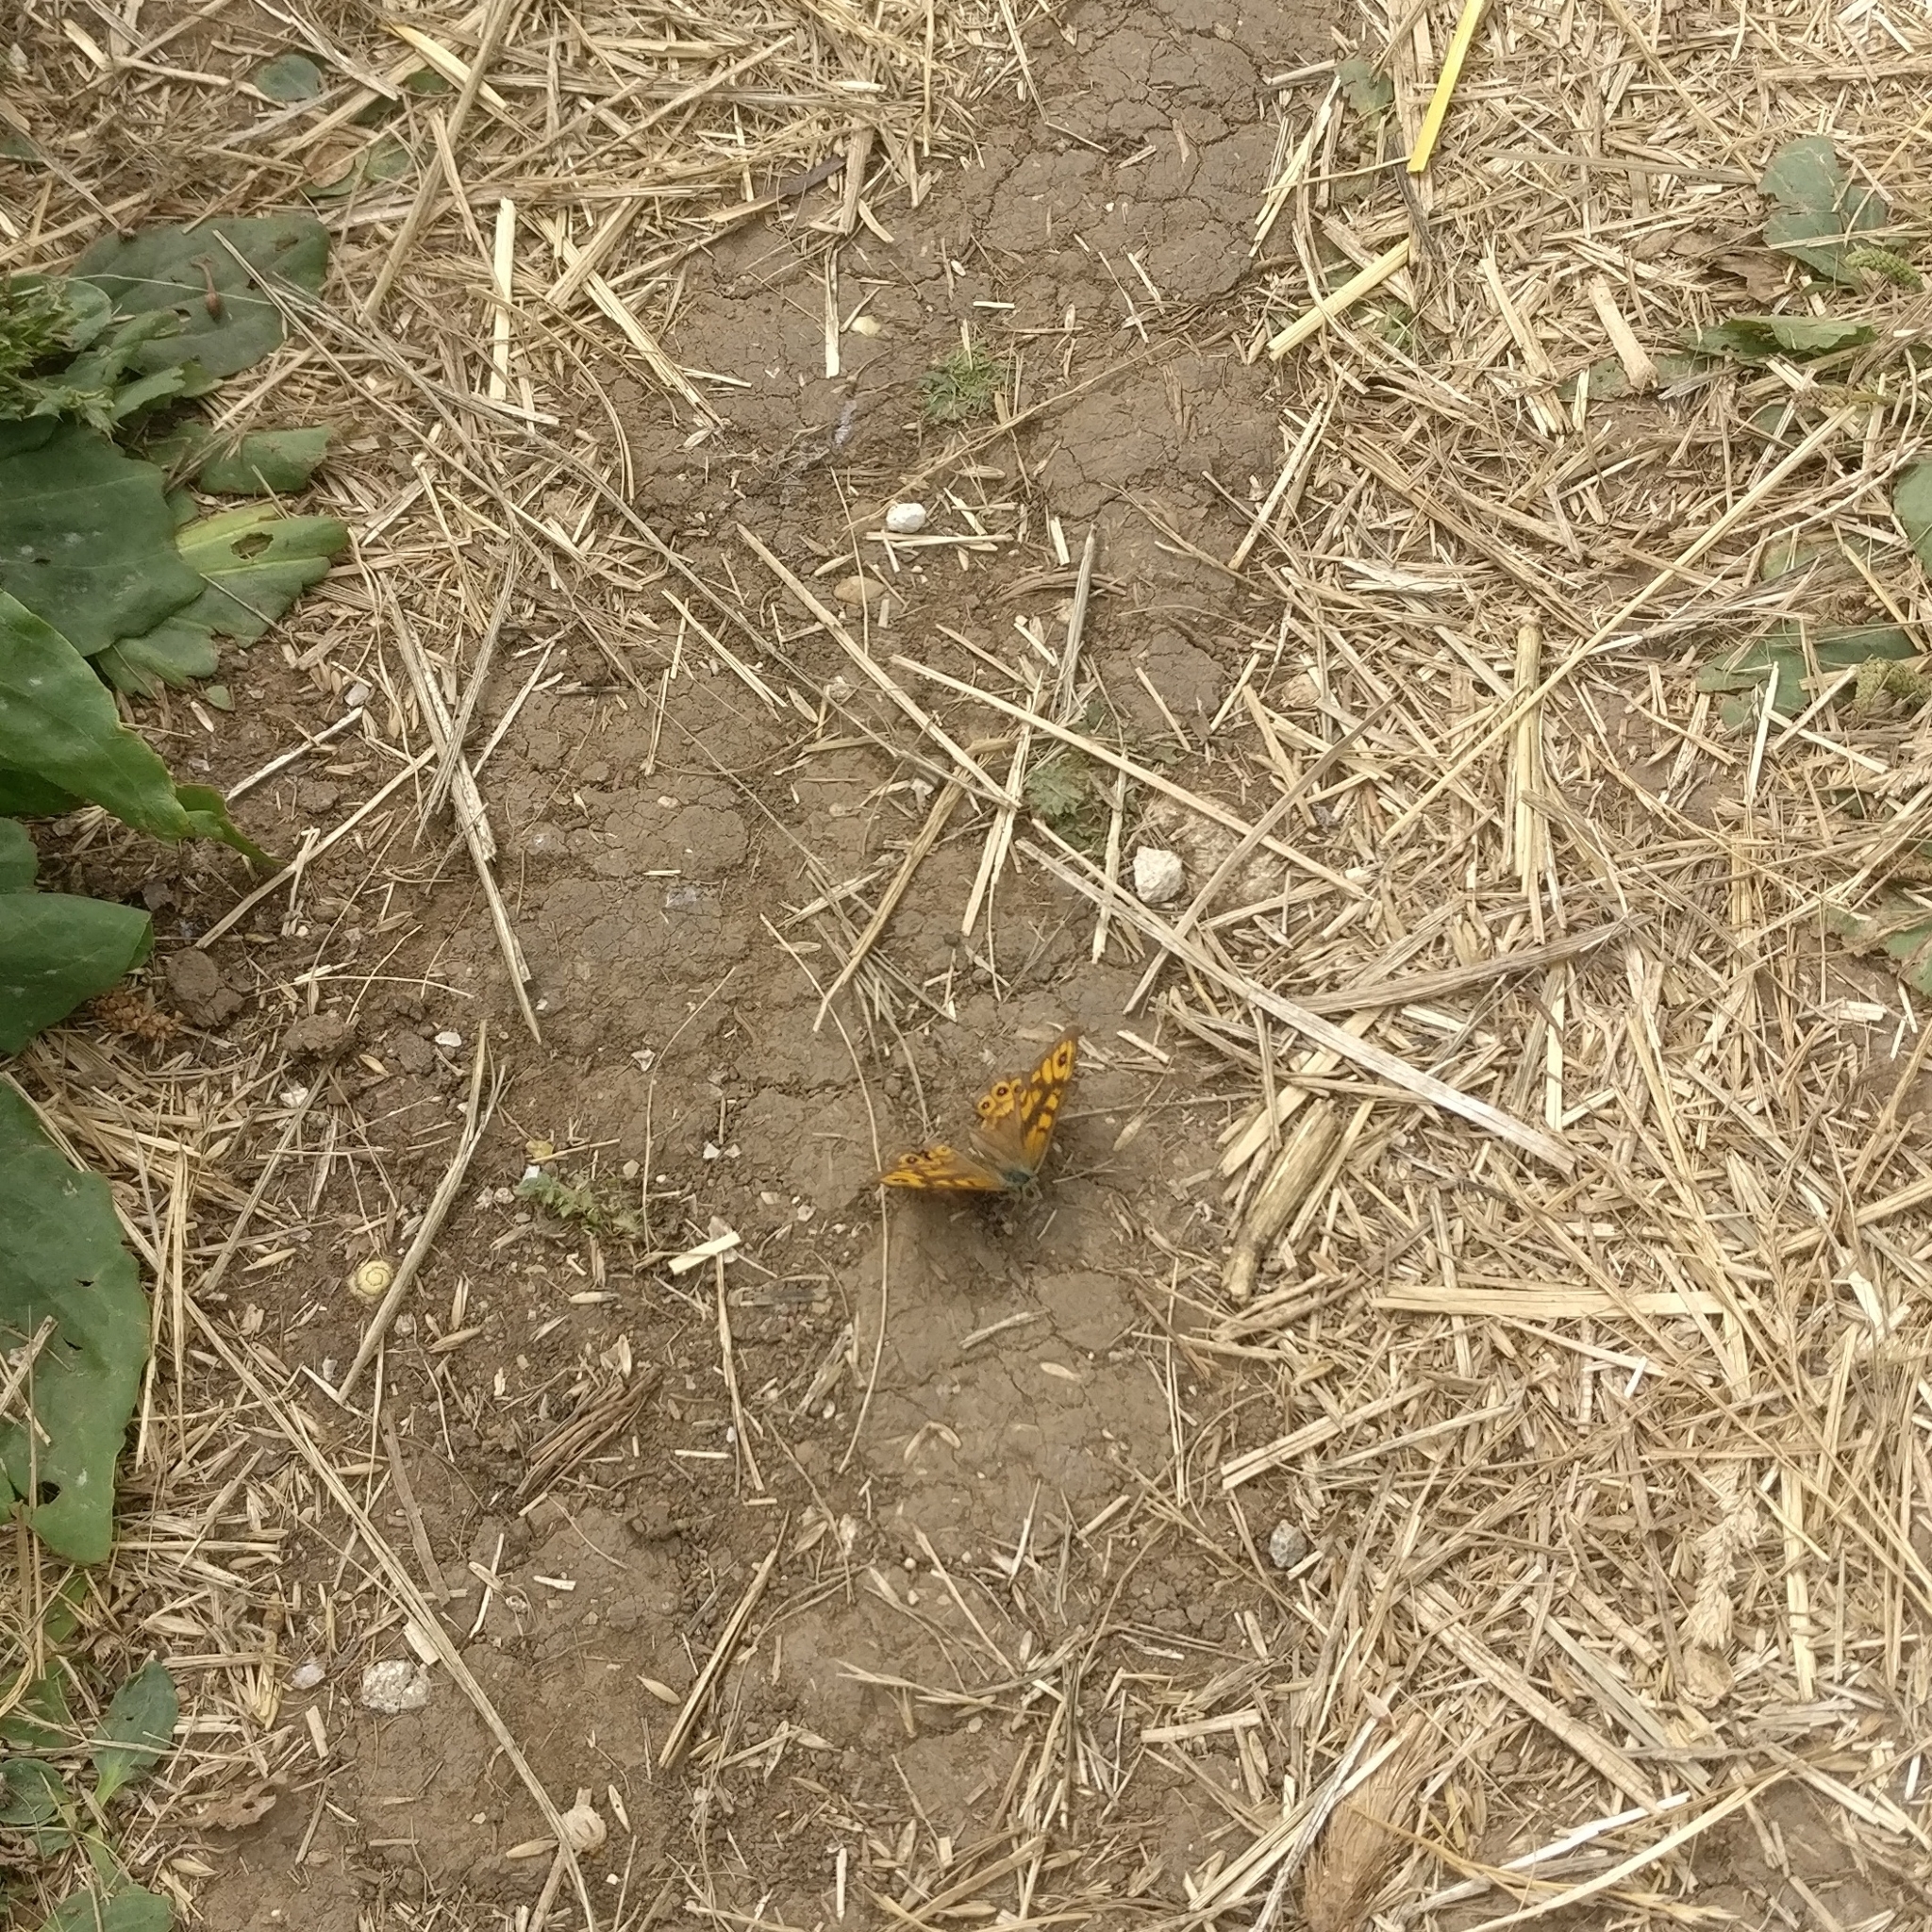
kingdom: Animalia
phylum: Arthropoda
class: Insecta
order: Lepidoptera
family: Nymphalidae
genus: Pararge
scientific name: Pararge Lasiommata megera
